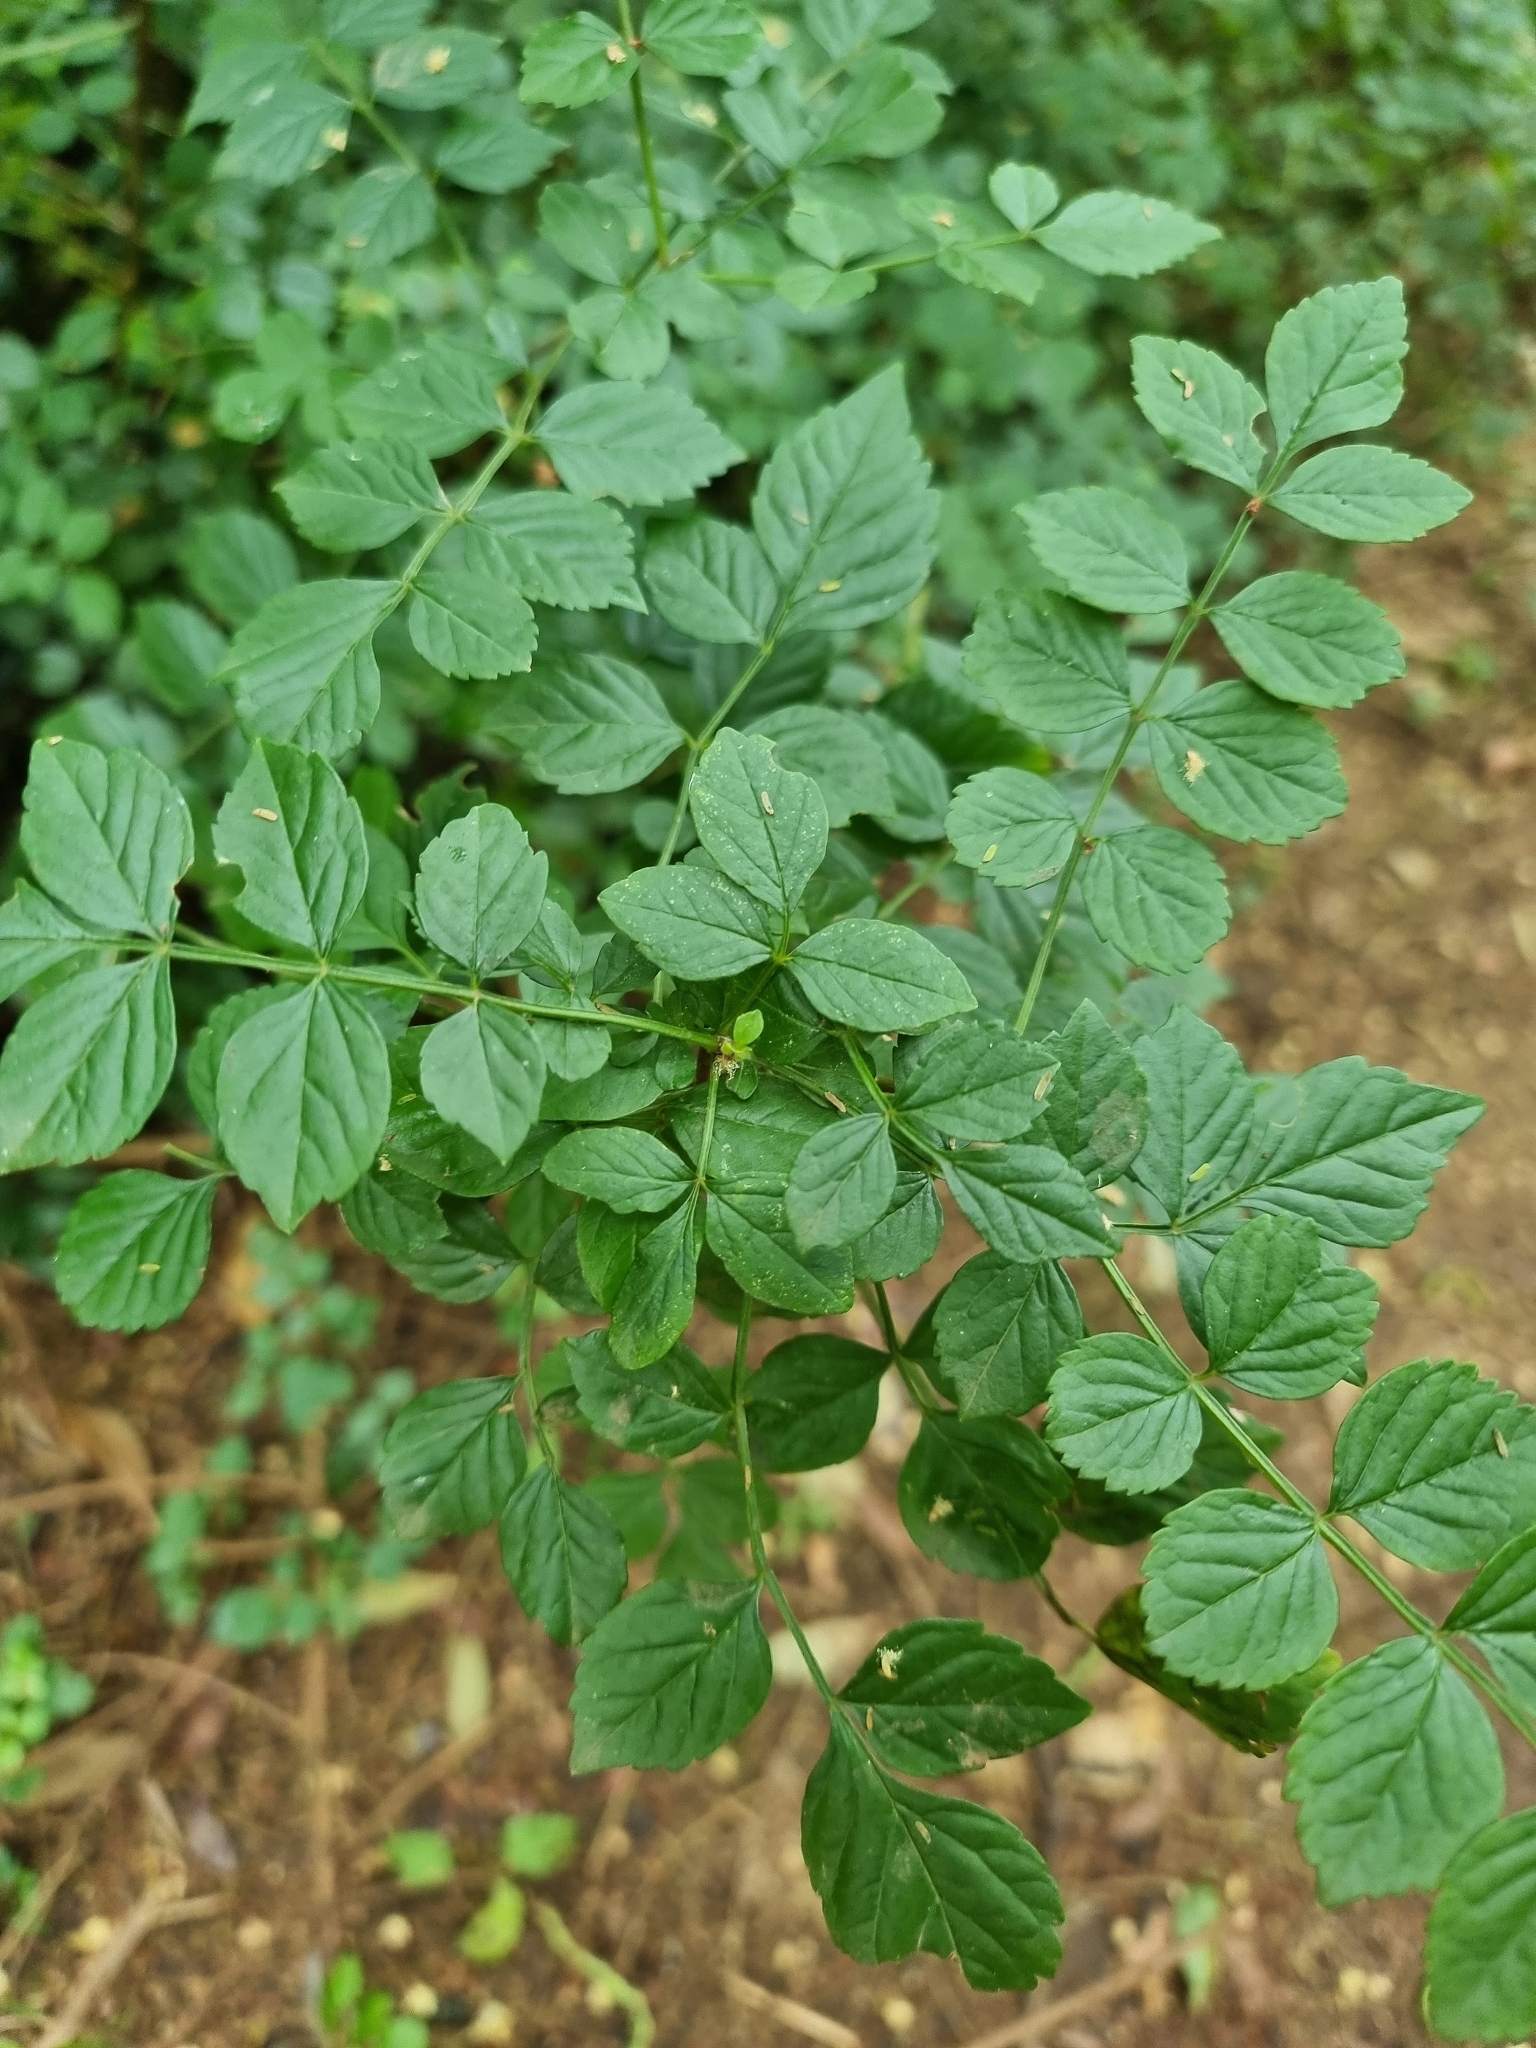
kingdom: Plantae
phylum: Tracheophyta
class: Magnoliopsida
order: Lamiales
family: Bignoniaceae
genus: Tecomaria
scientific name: Tecomaria capensis
